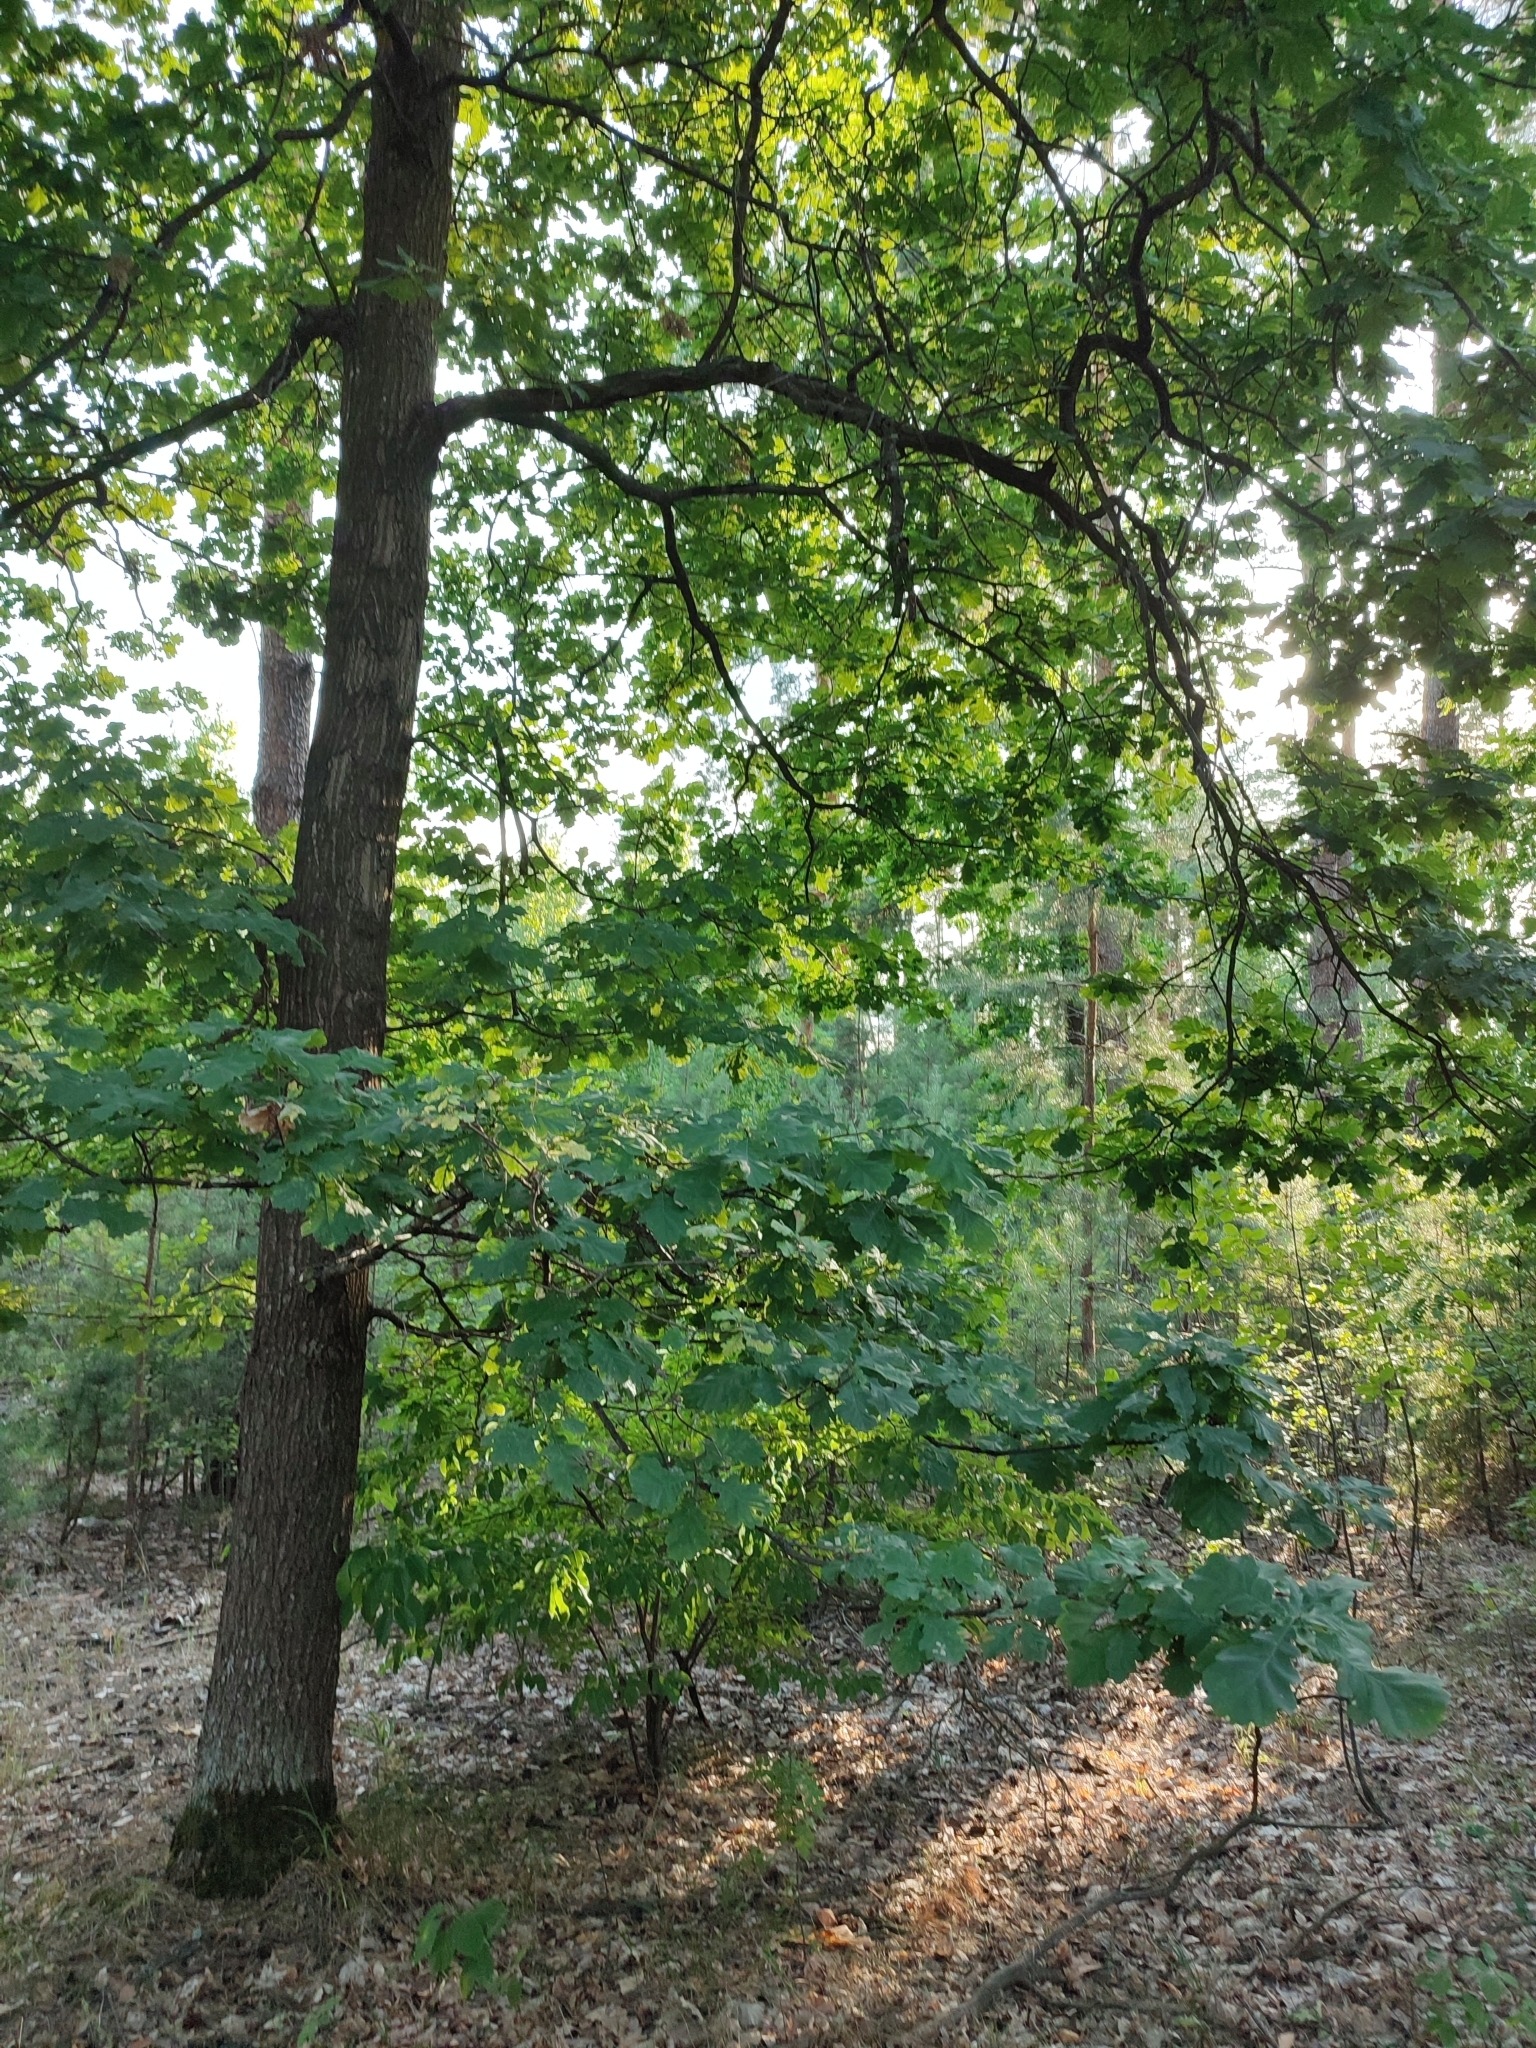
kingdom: Plantae
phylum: Tracheophyta
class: Magnoliopsida
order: Fagales
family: Fagaceae
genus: Quercus
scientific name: Quercus robur
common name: Pedunculate oak
